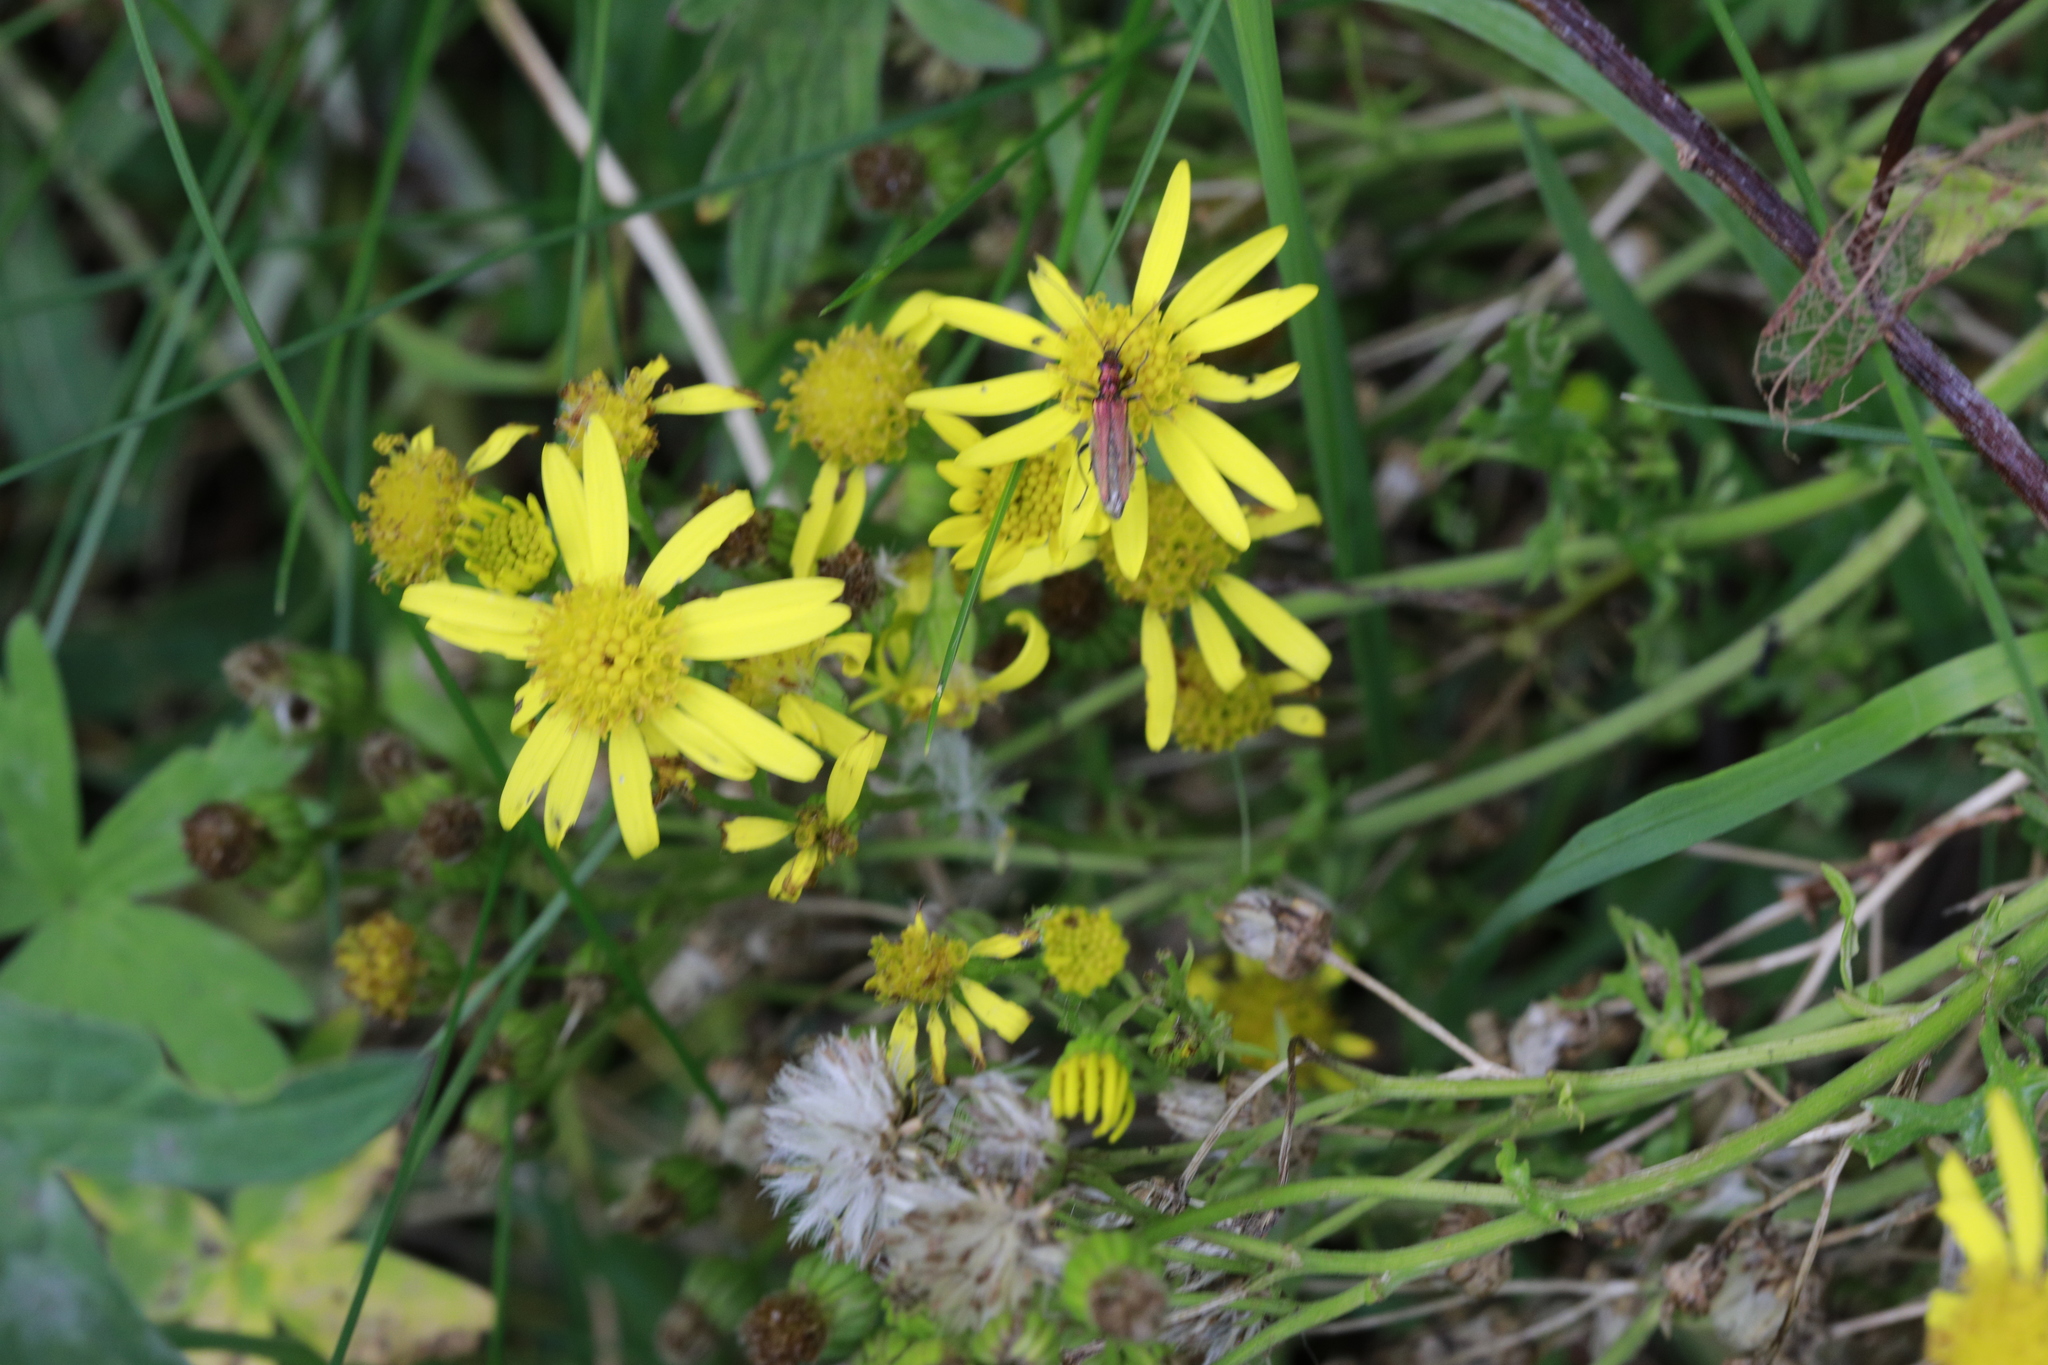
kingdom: Plantae
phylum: Tracheophyta
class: Magnoliopsida
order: Asterales
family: Asteraceae
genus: Jacobaea
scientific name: Jacobaea vulgaris
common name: Stinking willie
